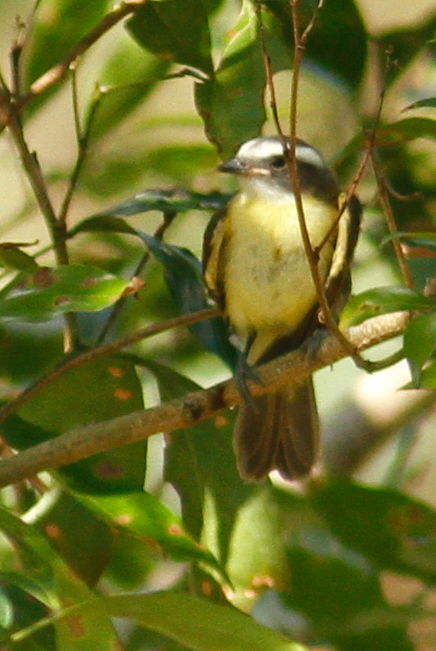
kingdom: Animalia
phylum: Chordata
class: Aves
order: Passeriformes
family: Tyrannidae
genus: Myiozetetes
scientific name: Myiozetetes similis
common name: Social flycatcher
